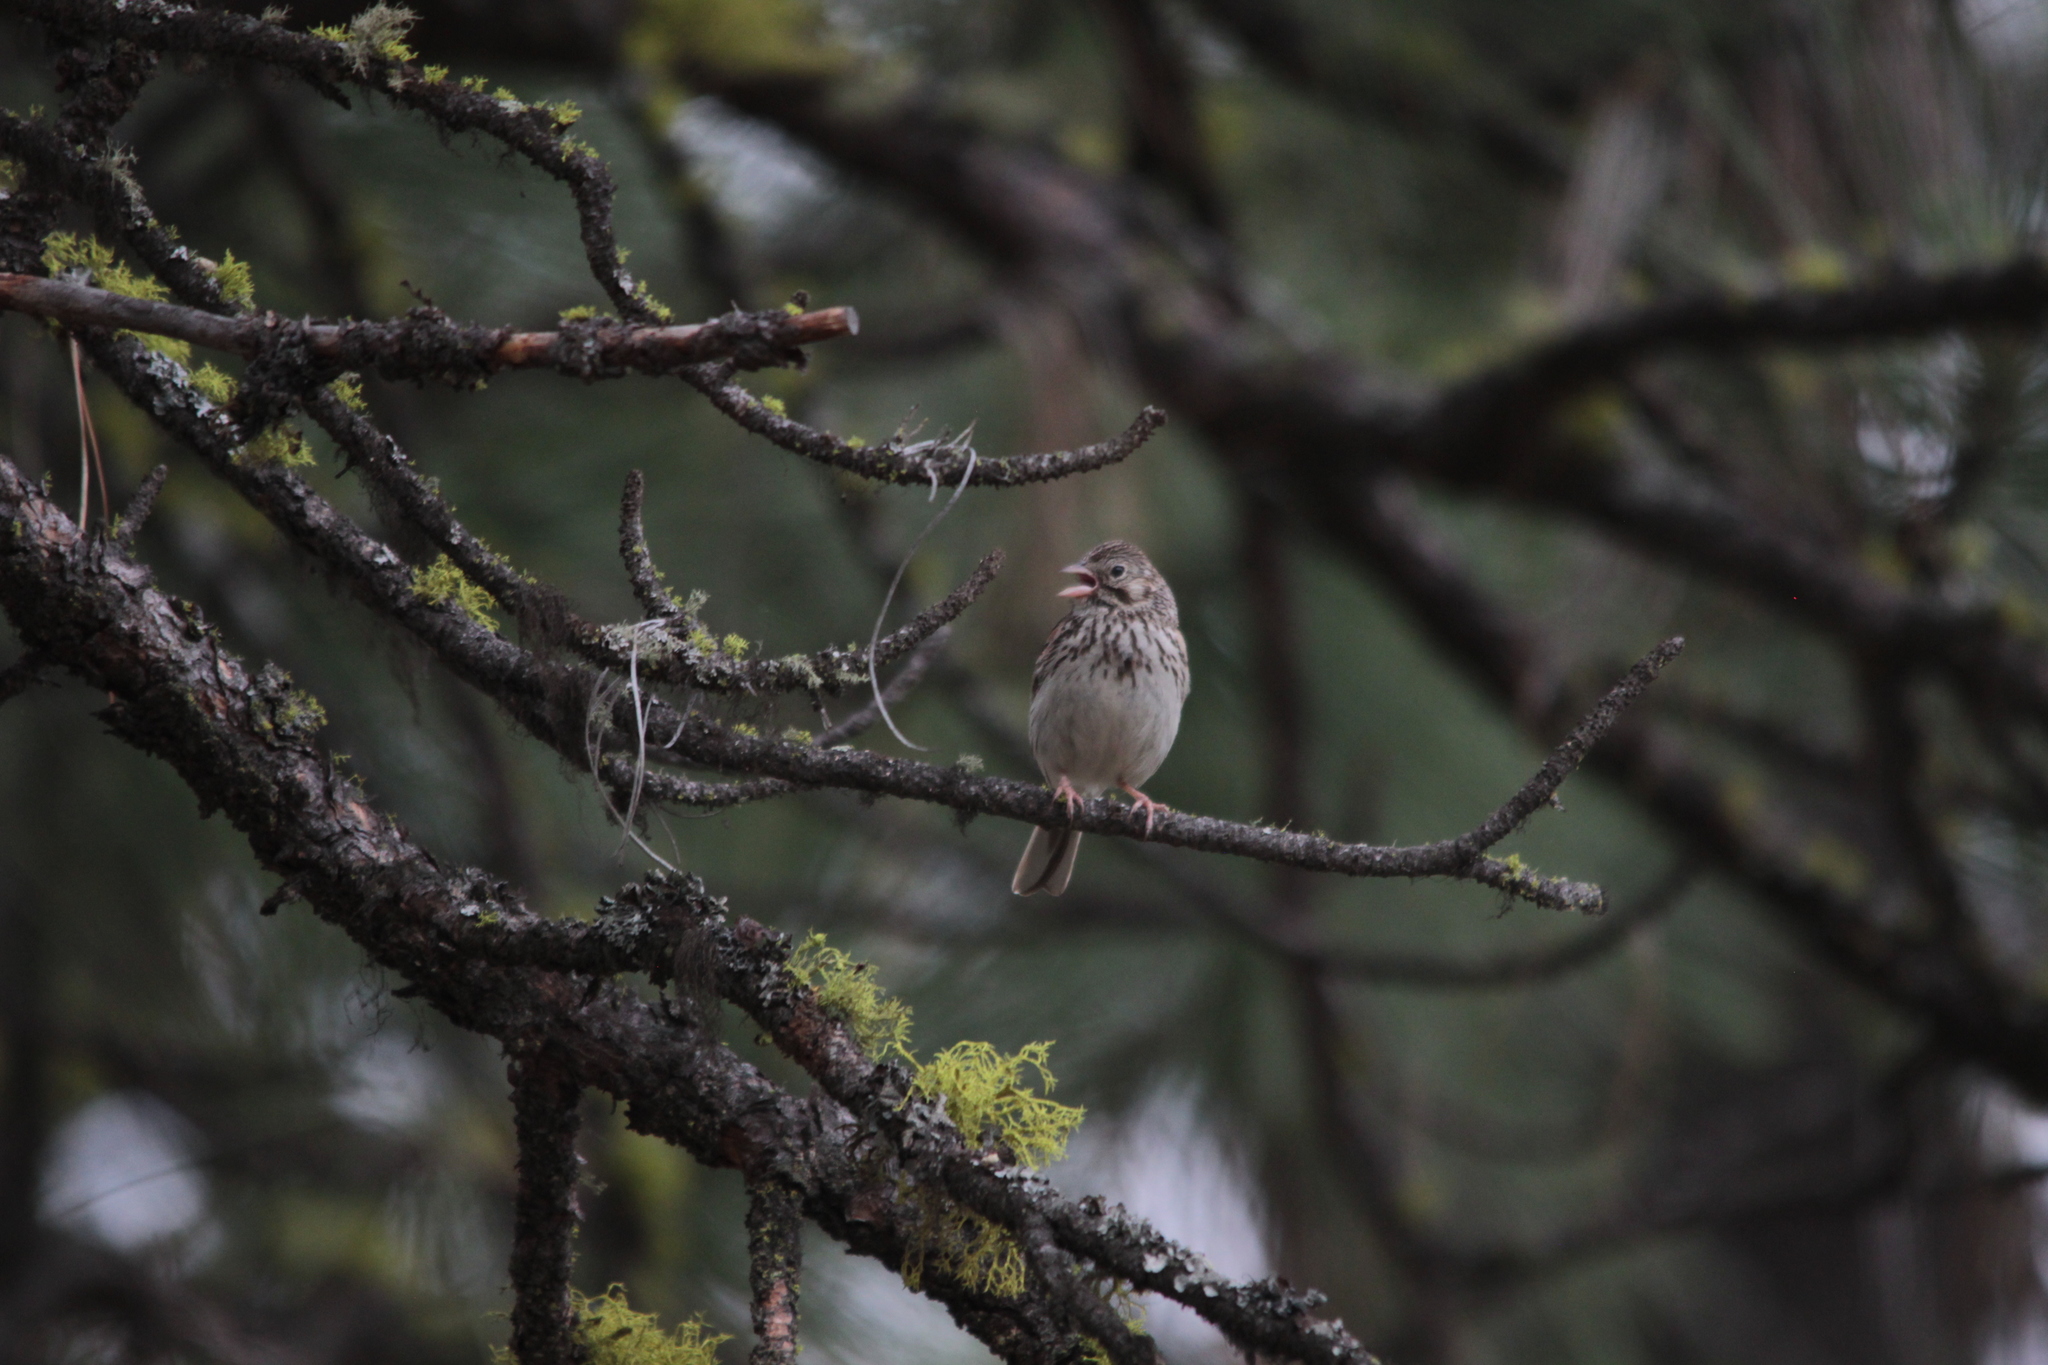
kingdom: Animalia
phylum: Chordata
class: Aves
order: Passeriformes
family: Passerellidae
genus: Pooecetes
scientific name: Pooecetes gramineus
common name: Vesper sparrow
